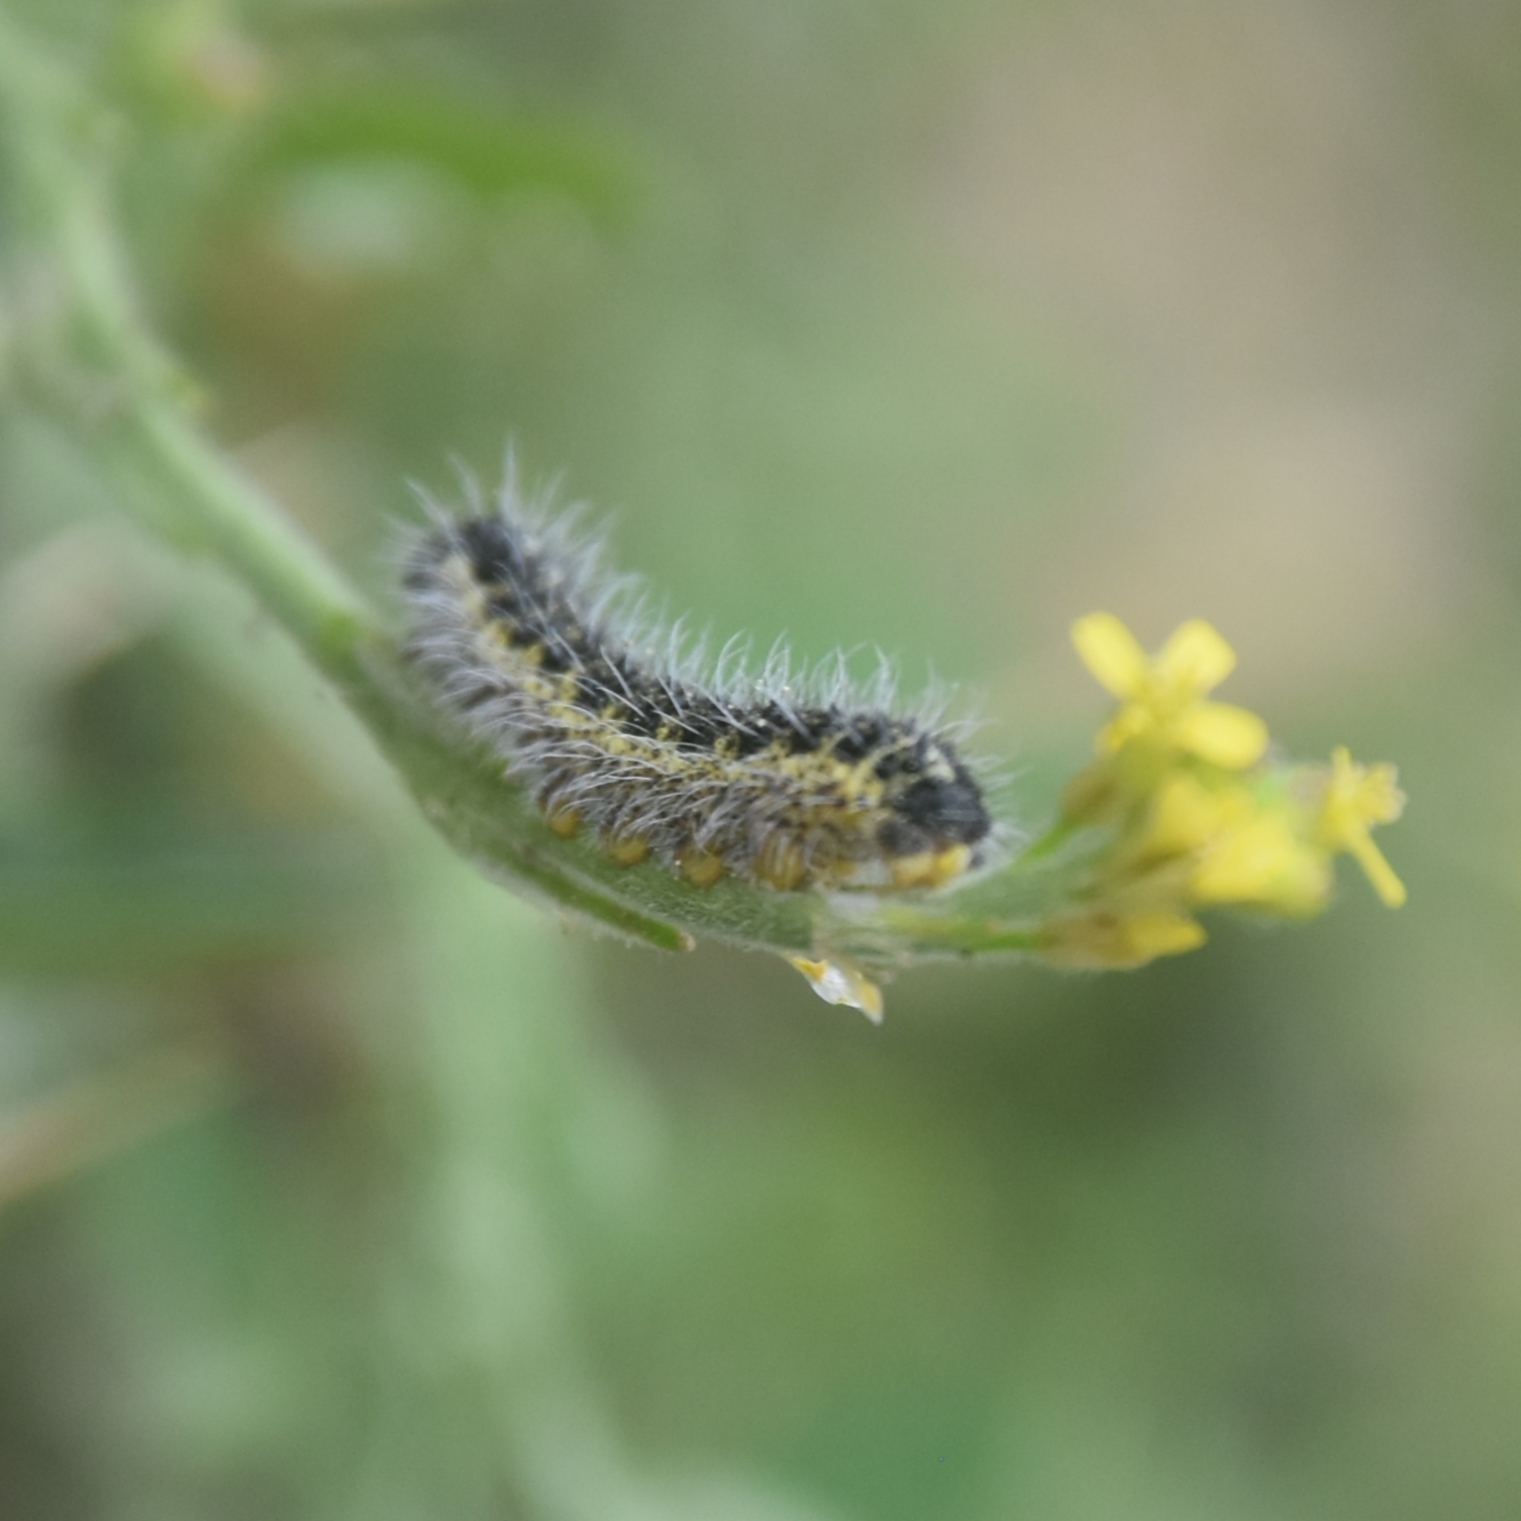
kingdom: Animalia
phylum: Arthropoda
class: Insecta
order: Lepidoptera
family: Pieridae
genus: Pieris
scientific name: Pieris brassicae
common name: Large white
